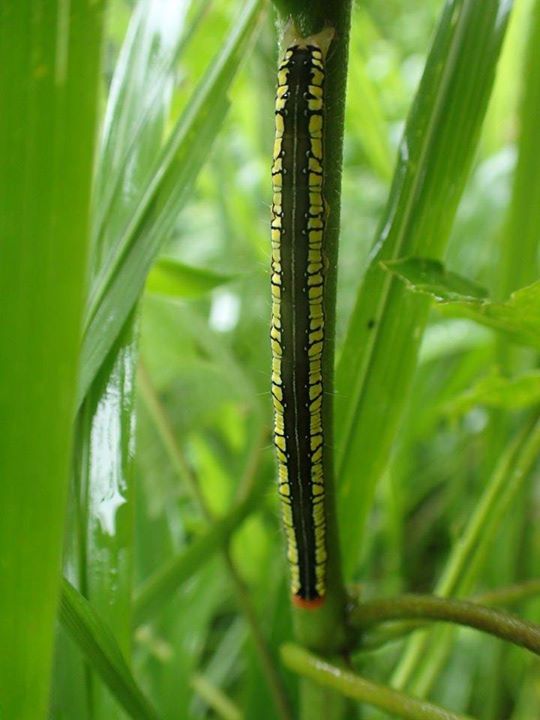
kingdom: Animalia
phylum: Arthropoda
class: Insecta
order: Lepidoptera
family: Erebidae
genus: Anomis
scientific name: Anomis fulvida
